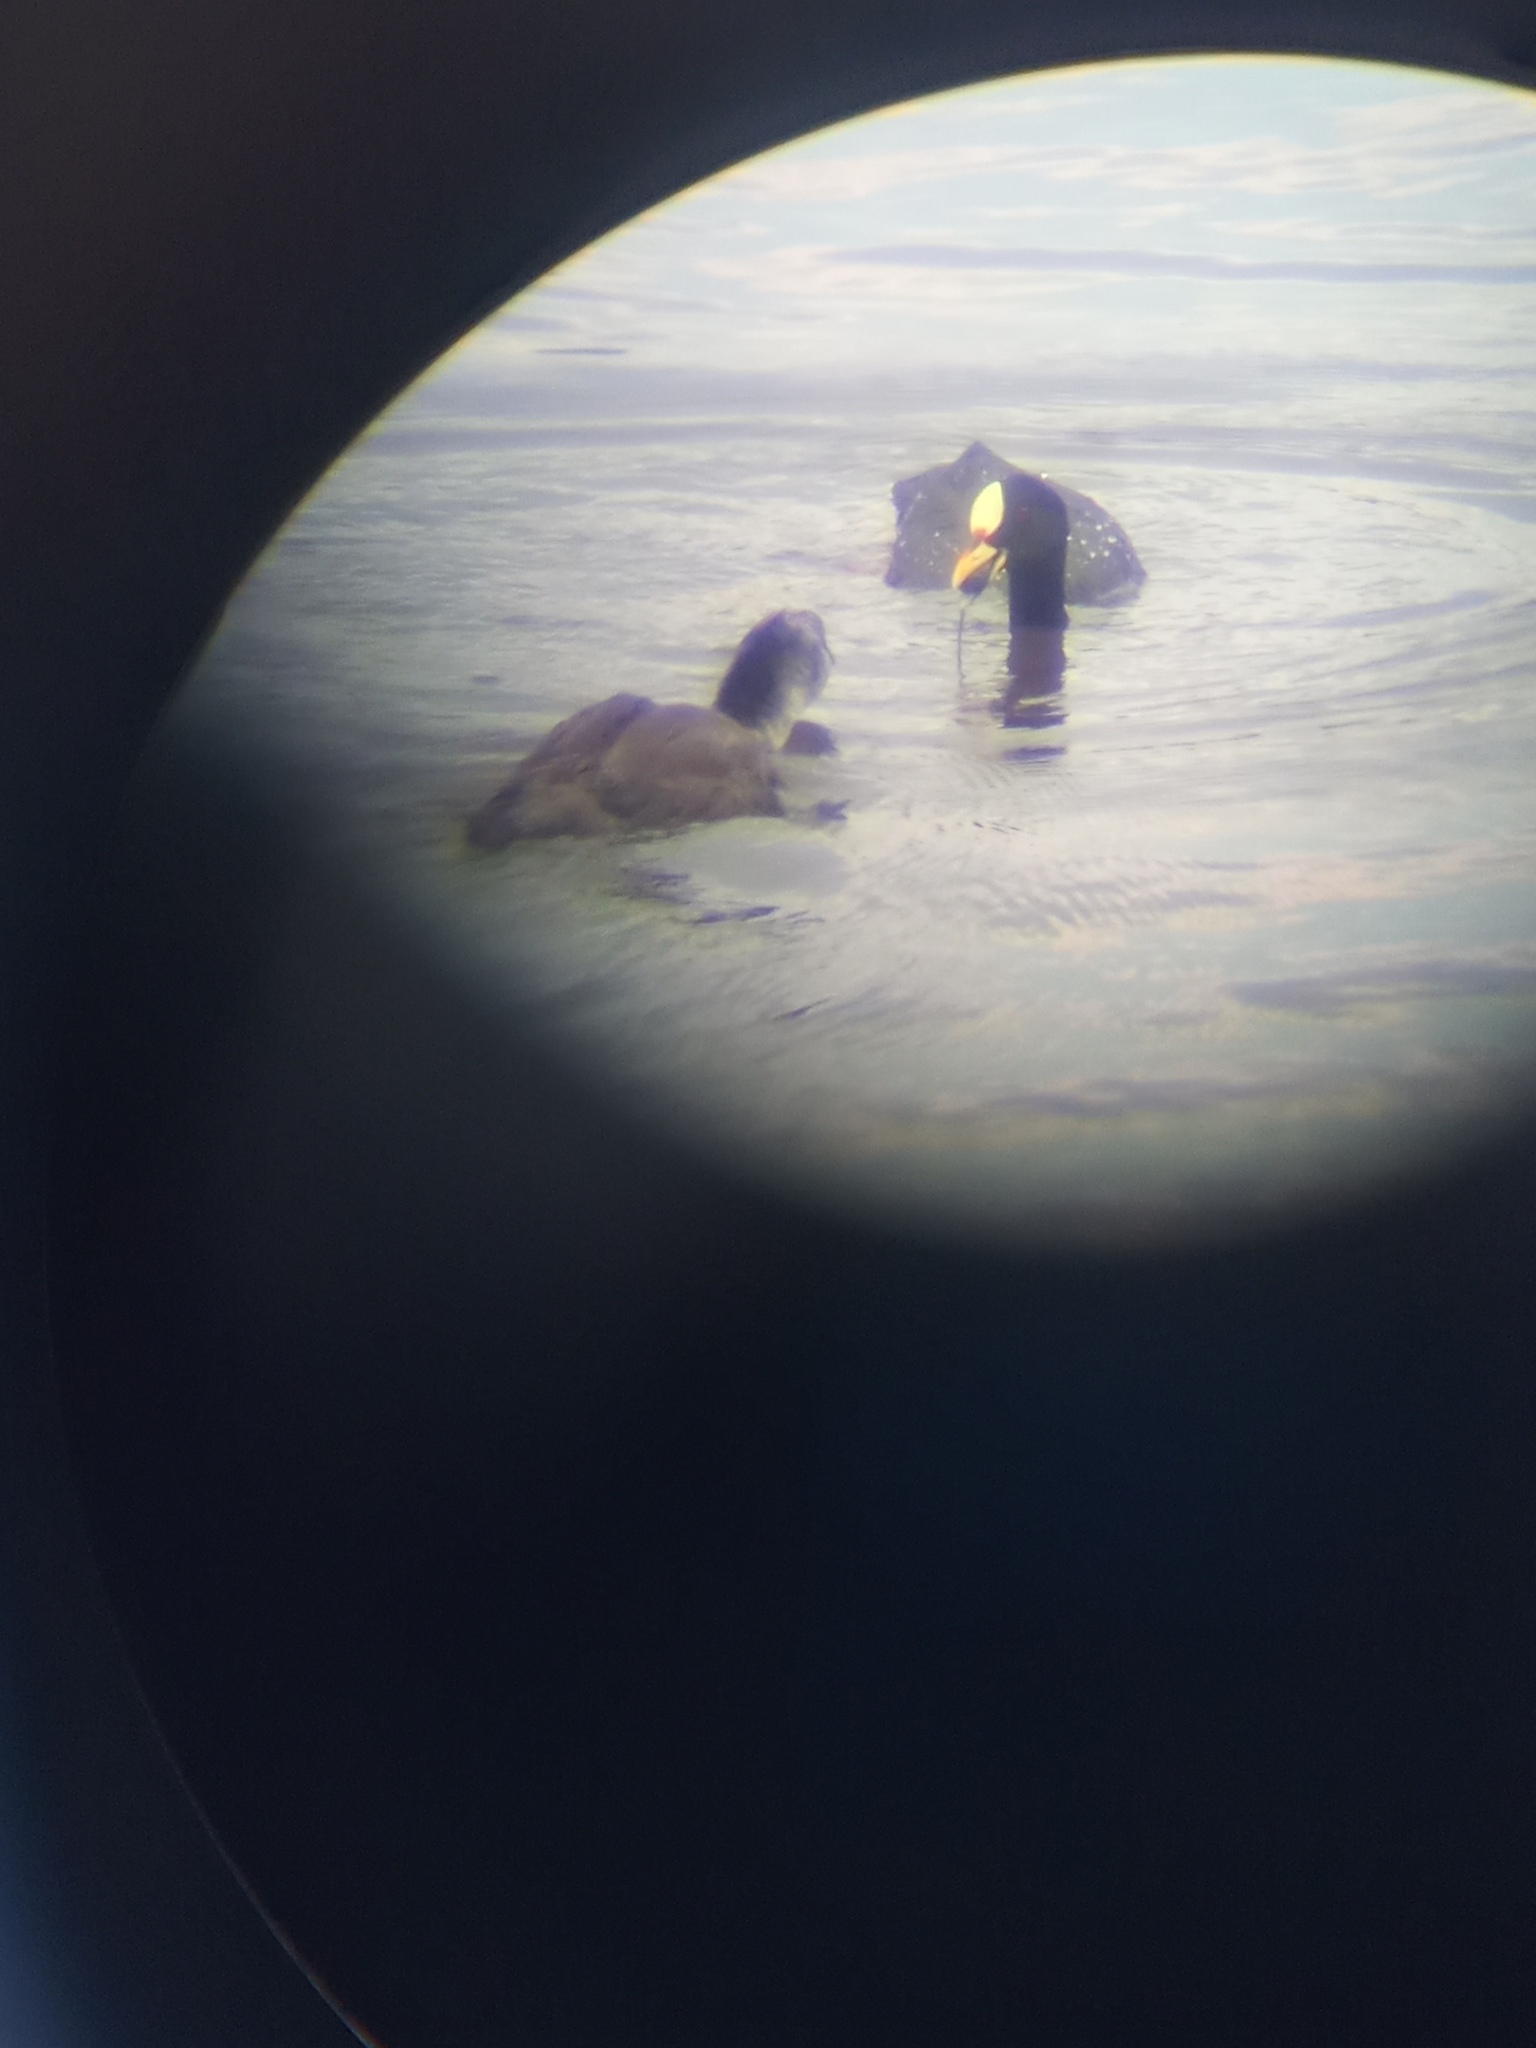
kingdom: Animalia
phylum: Chordata
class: Aves
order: Gruiformes
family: Rallidae
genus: Fulica
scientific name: Fulica armillata
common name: Red-gartered coot
